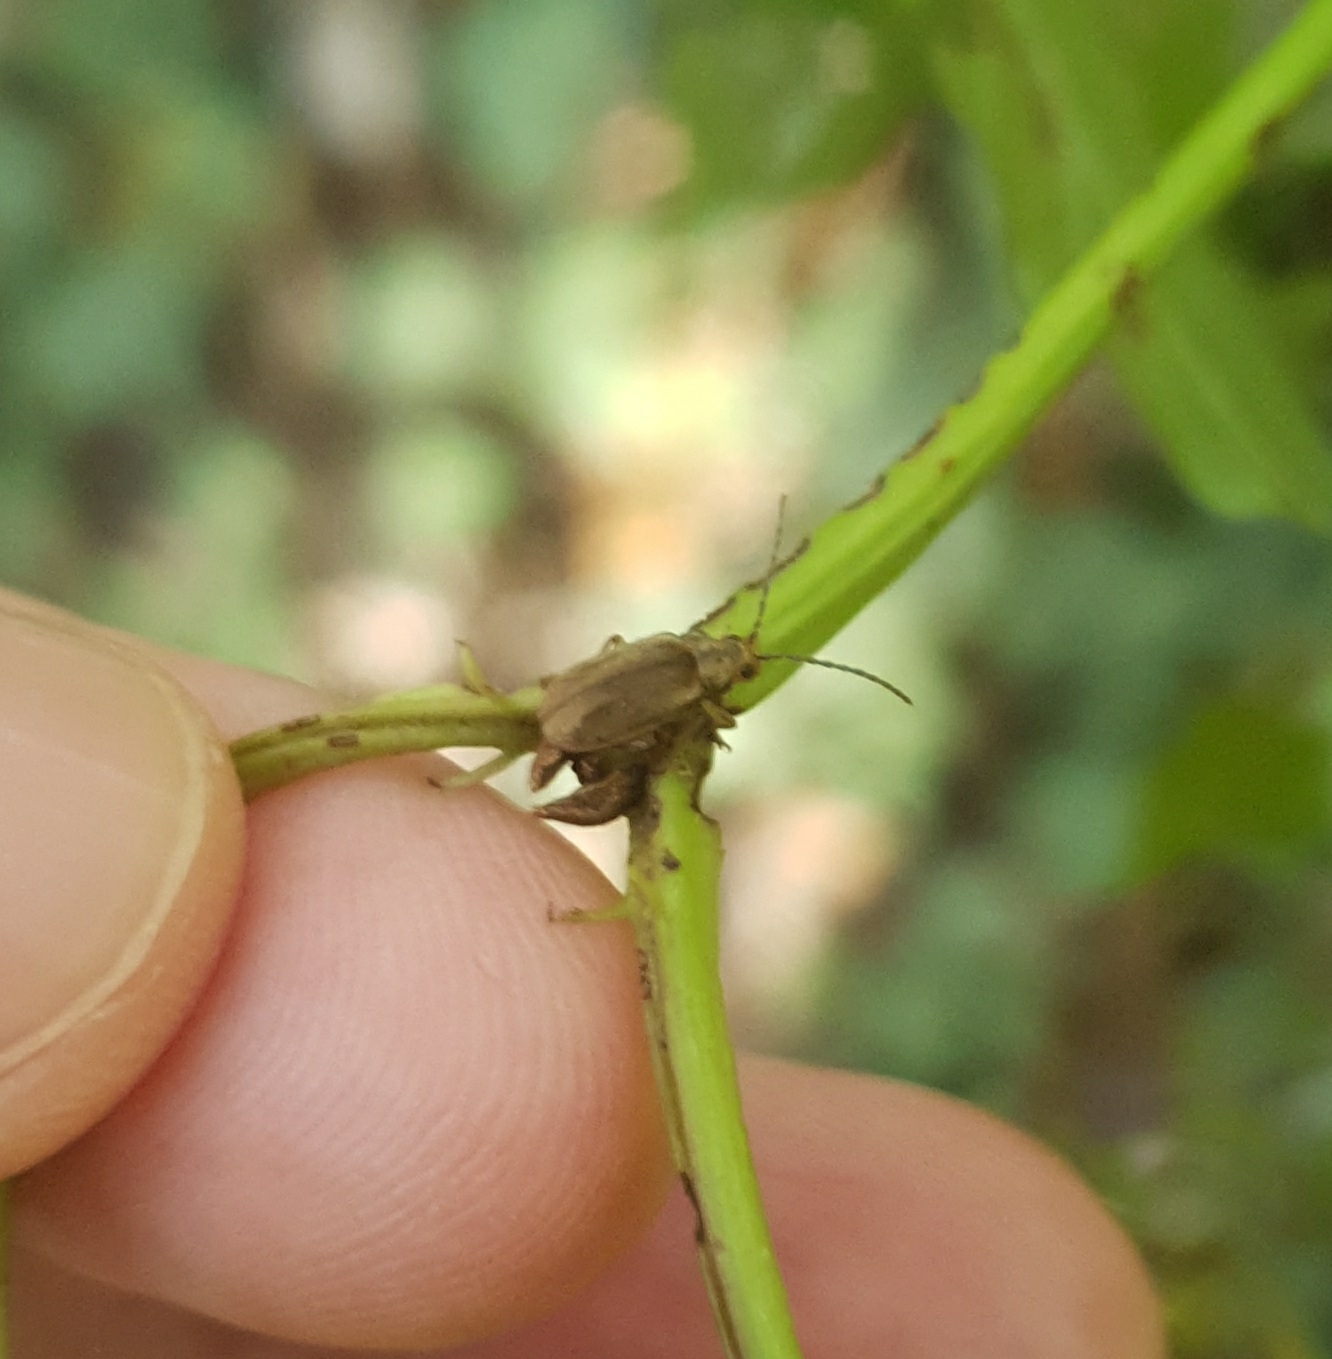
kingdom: Animalia
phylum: Arthropoda
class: Insecta
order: Coleoptera
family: Chrysomelidae
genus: Pyrrhalta
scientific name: Pyrrhalta viburni
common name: Guelder-rose leaf beetle
